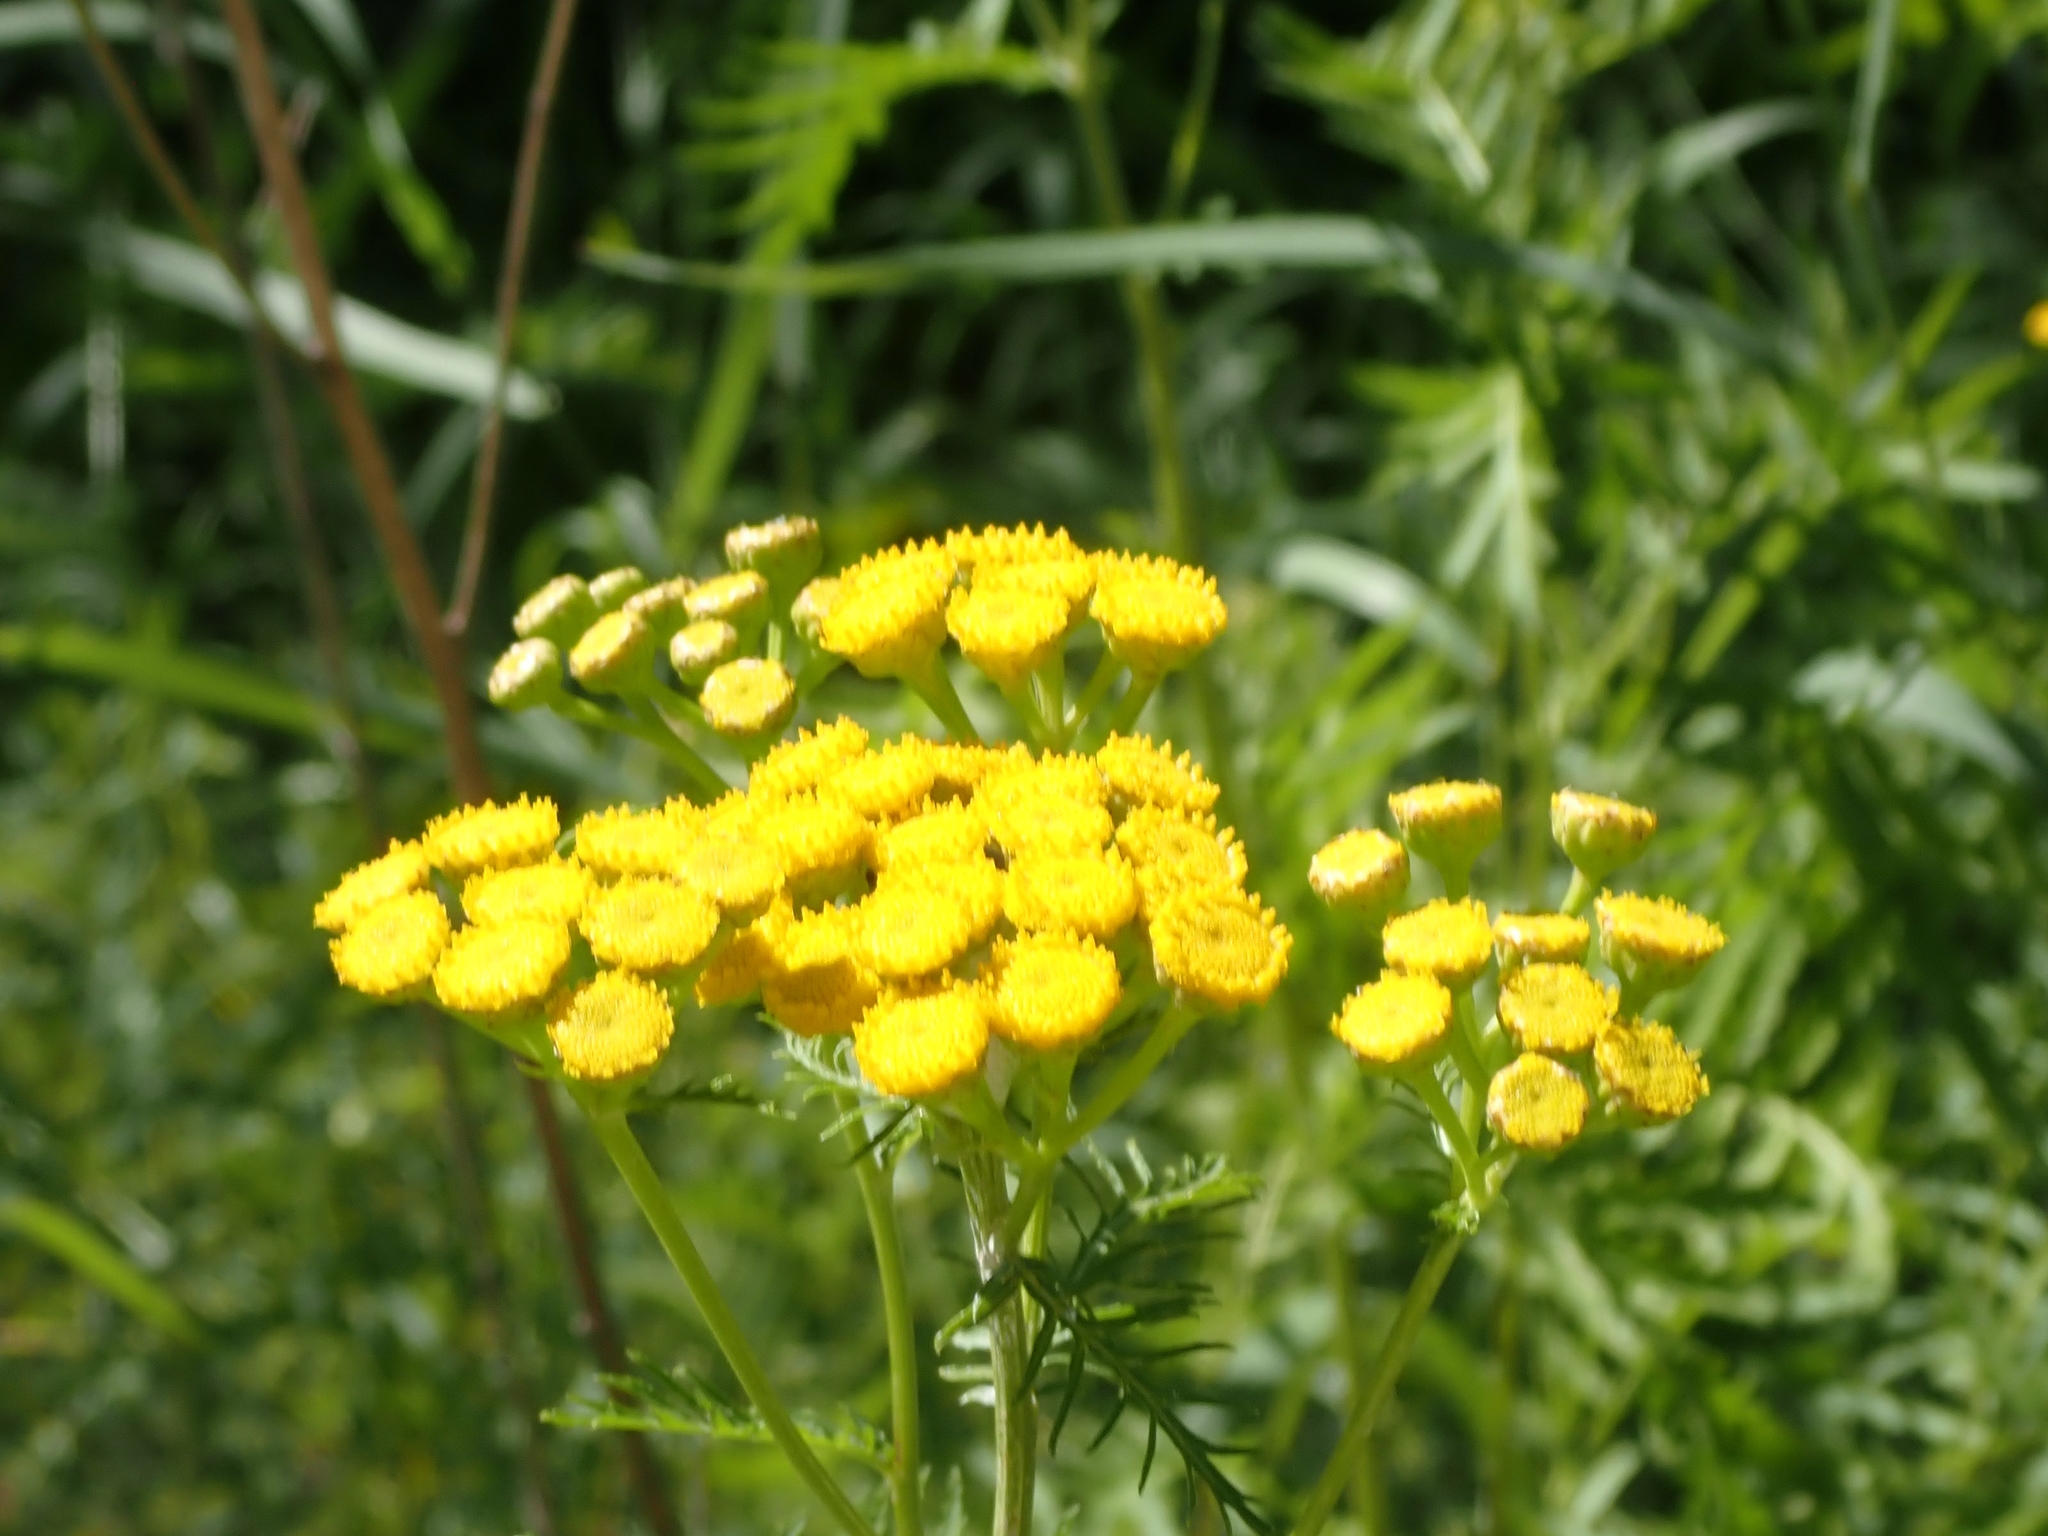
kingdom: Plantae
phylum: Tracheophyta
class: Magnoliopsida
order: Asterales
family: Asteraceae
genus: Tanacetum
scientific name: Tanacetum vulgare
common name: Common tansy
